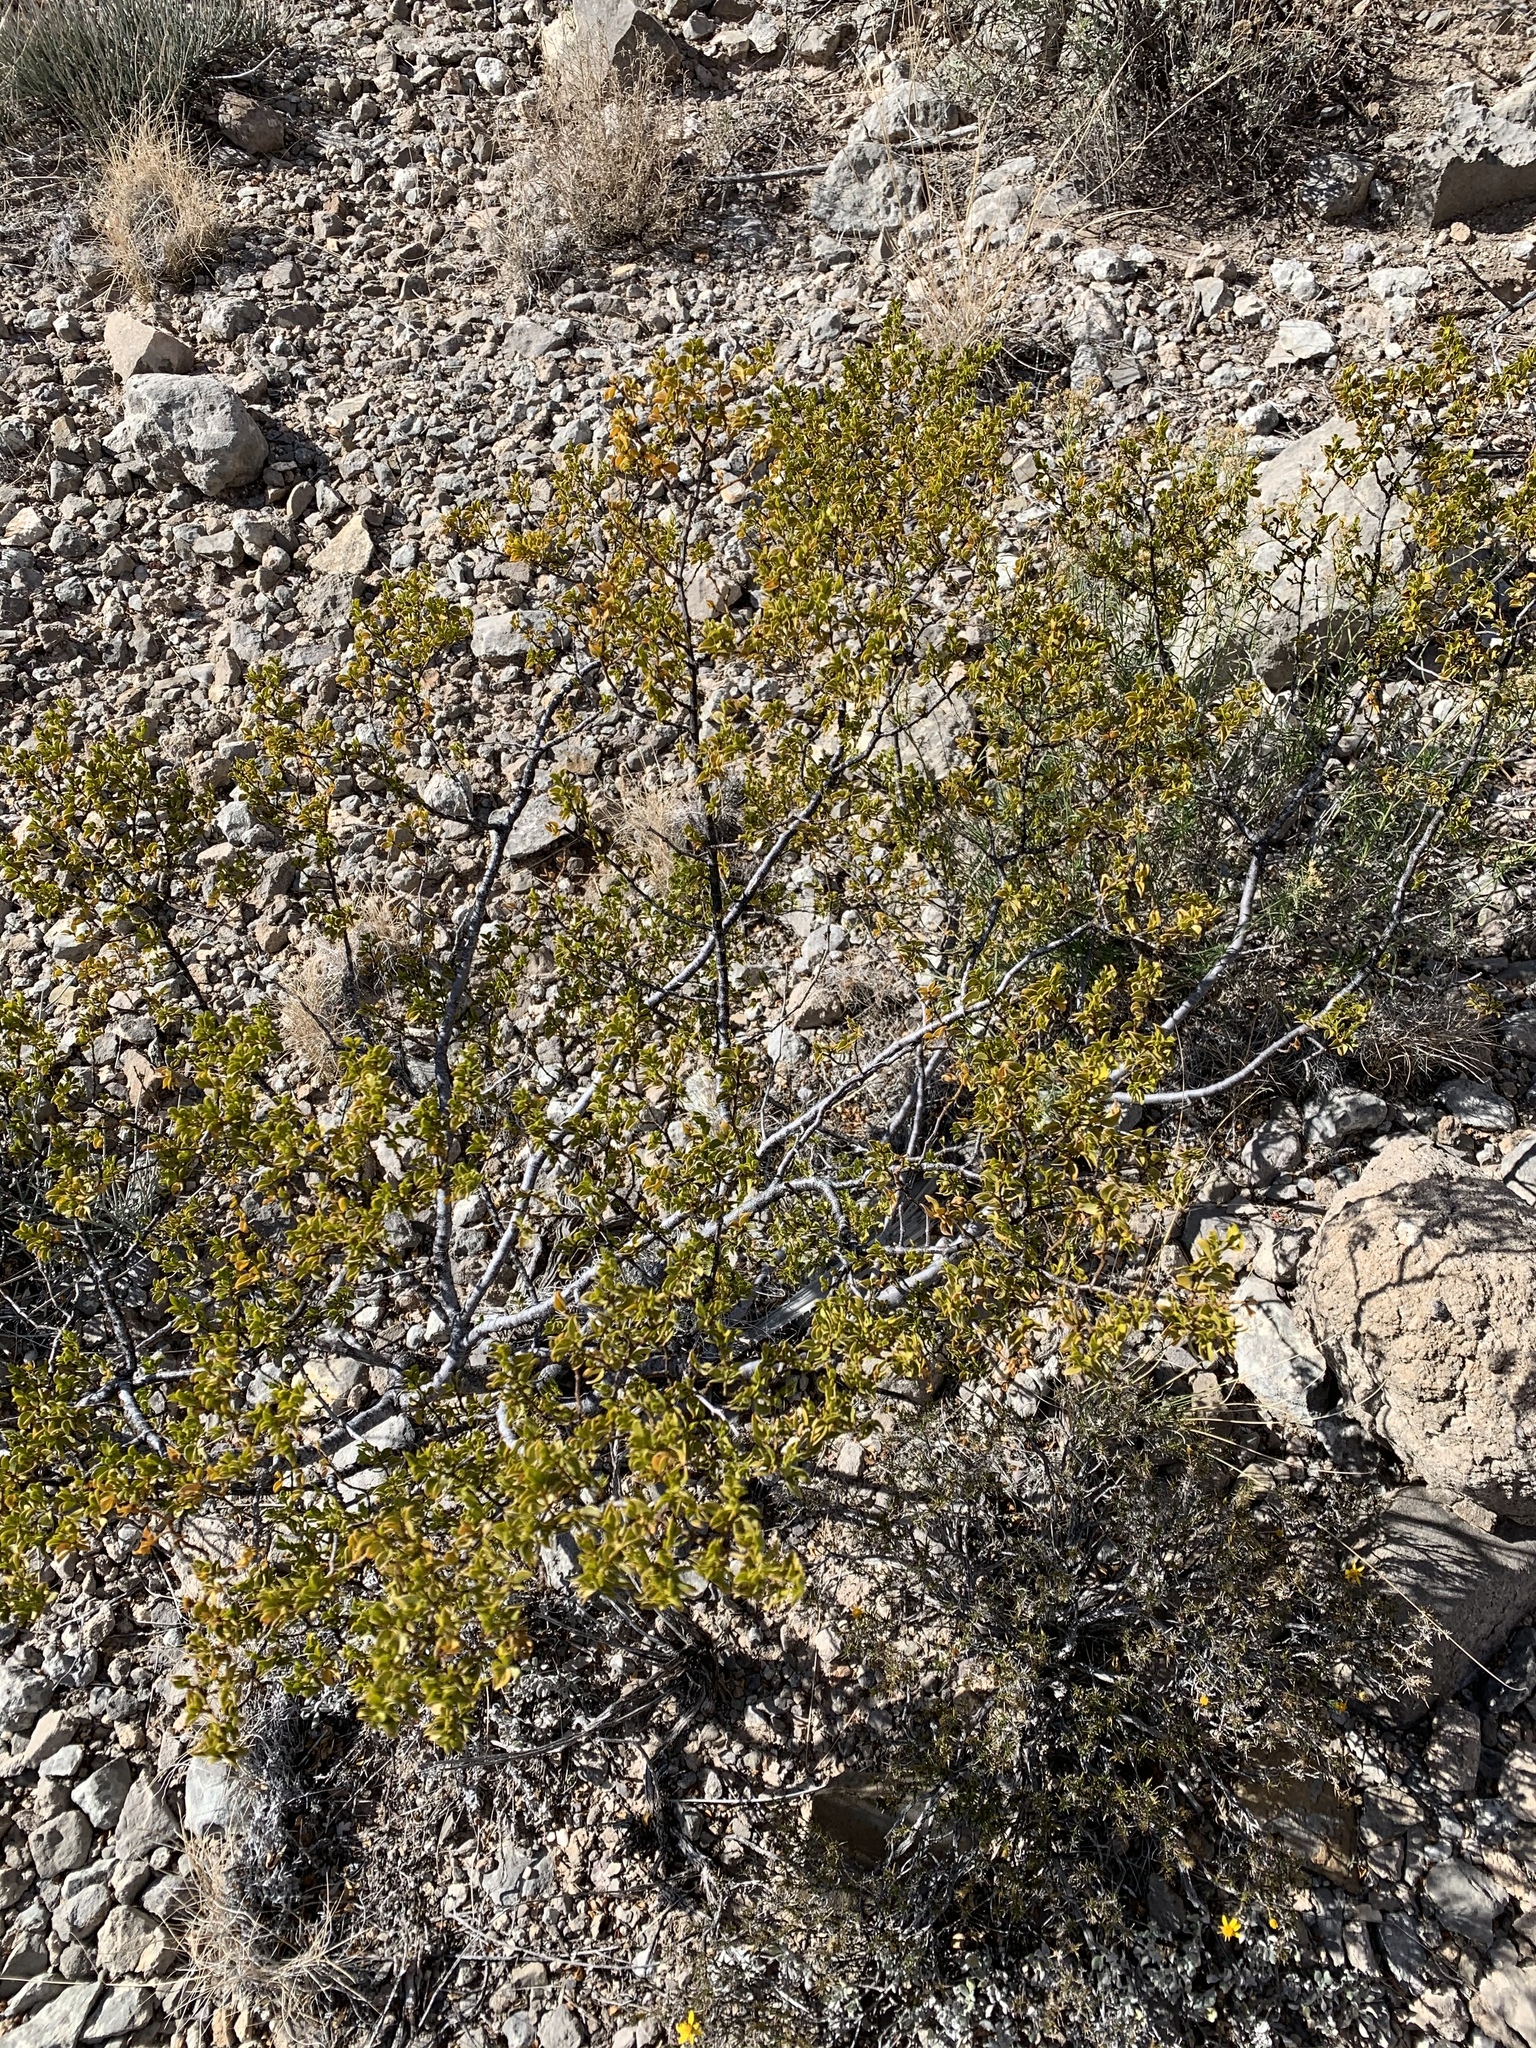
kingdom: Plantae
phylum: Tracheophyta
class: Magnoliopsida
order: Zygophyllales
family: Zygophyllaceae
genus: Larrea
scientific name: Larrea tridentata
